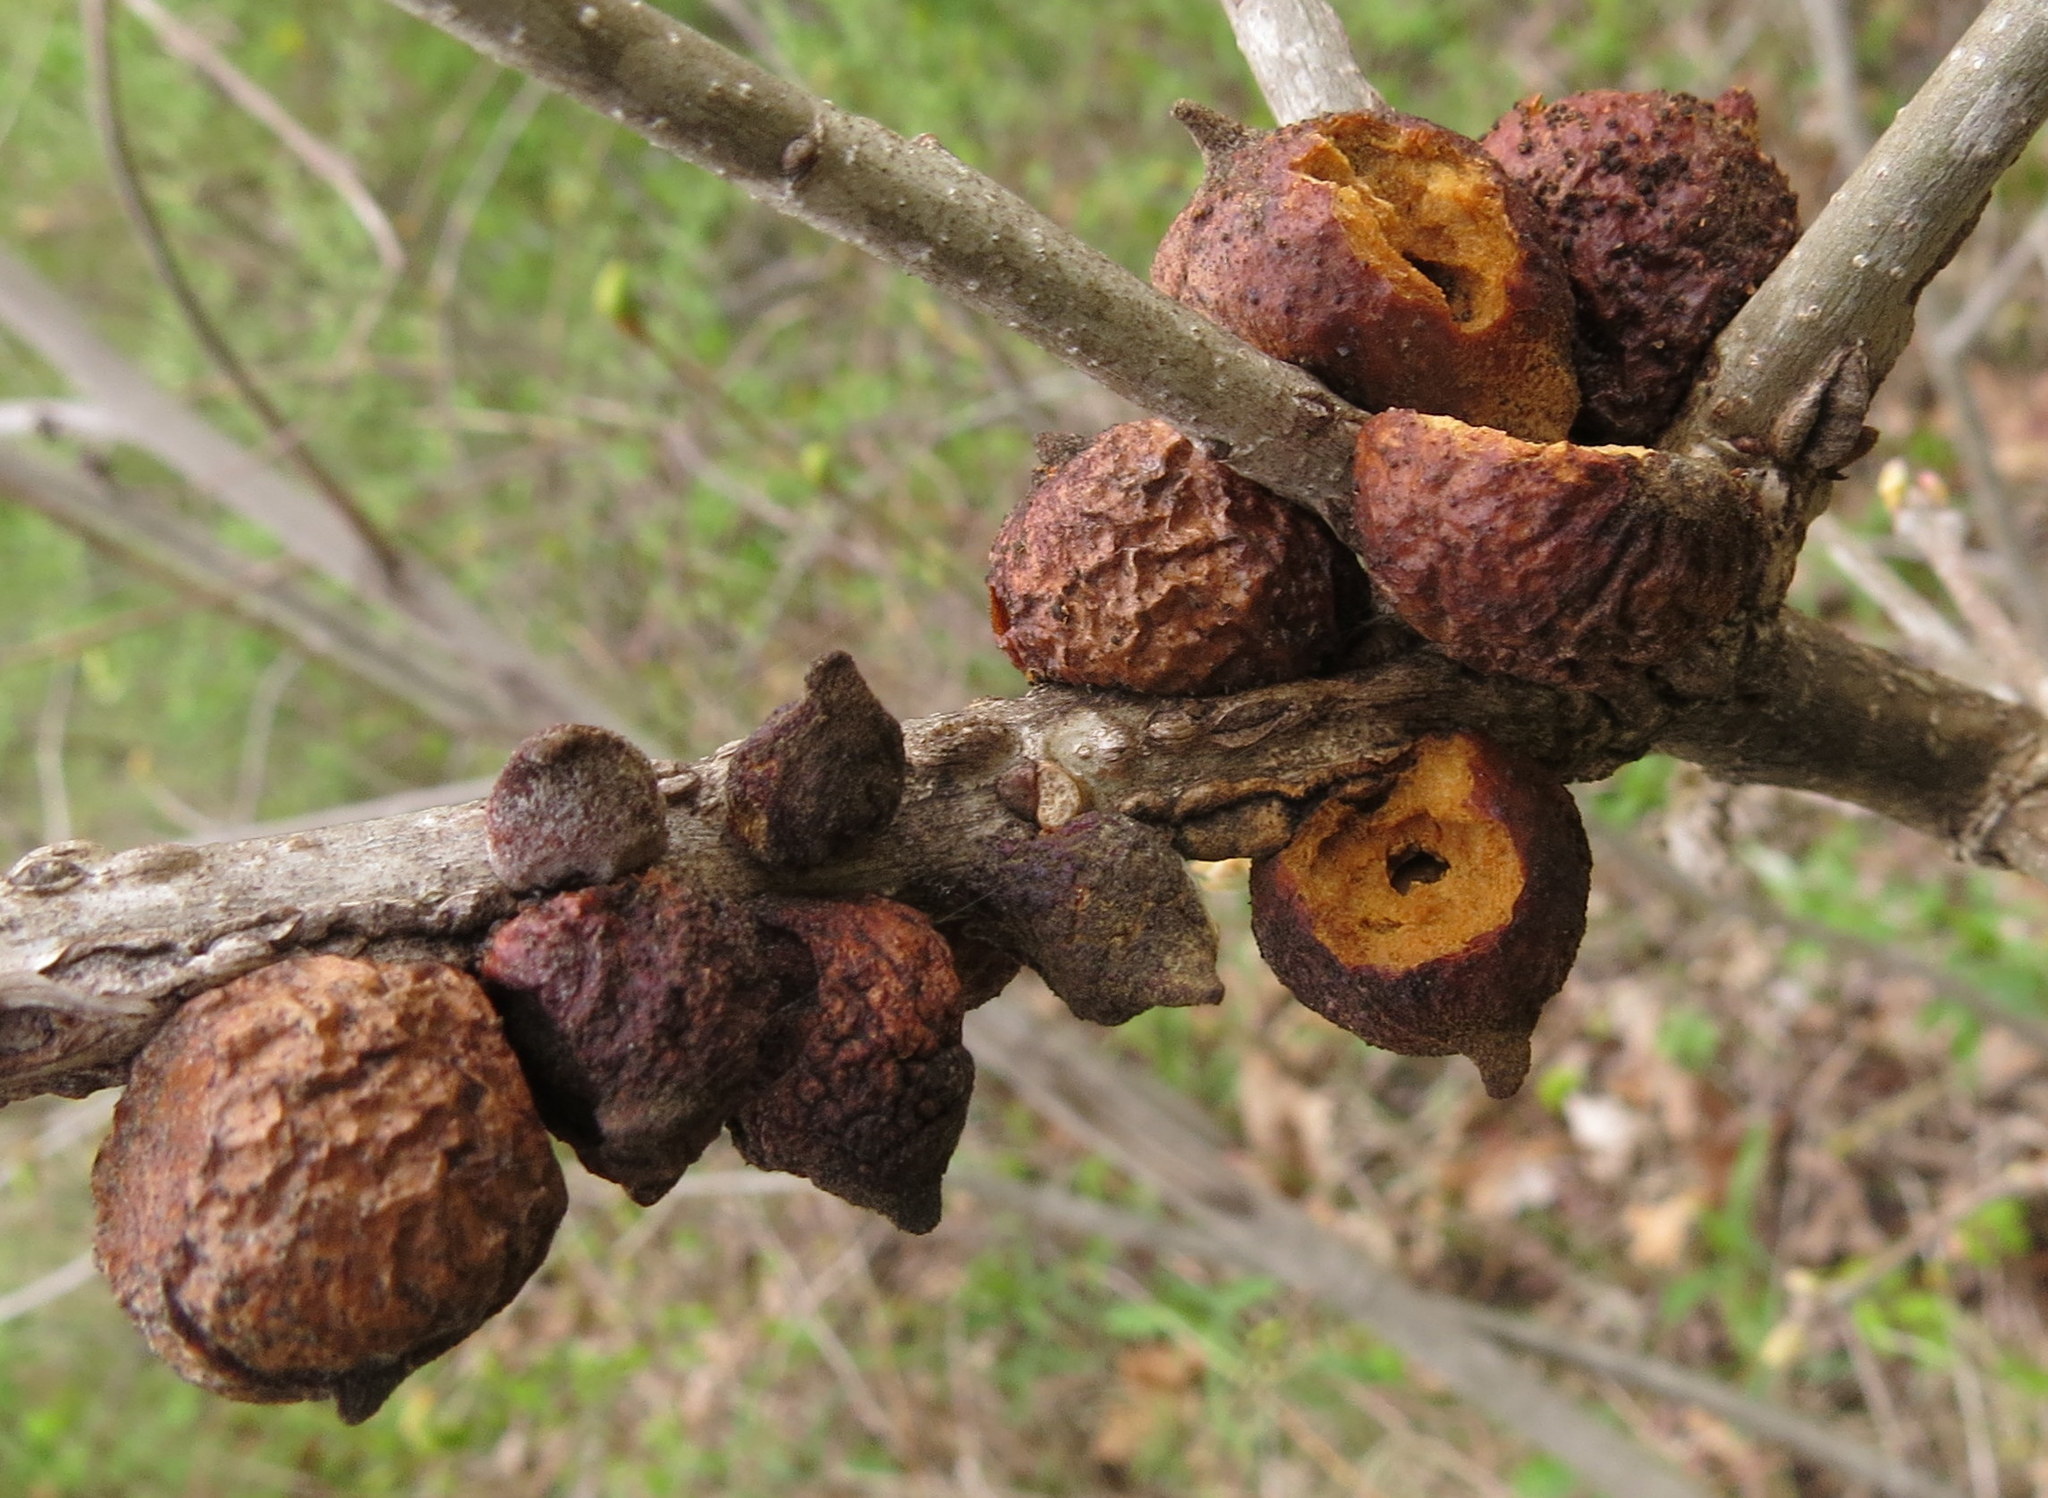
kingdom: Animalia
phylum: Arthropoda
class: Insecta
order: Hymenoptera
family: Cynipidae
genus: Disholcaspis
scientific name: Disholcaspis
